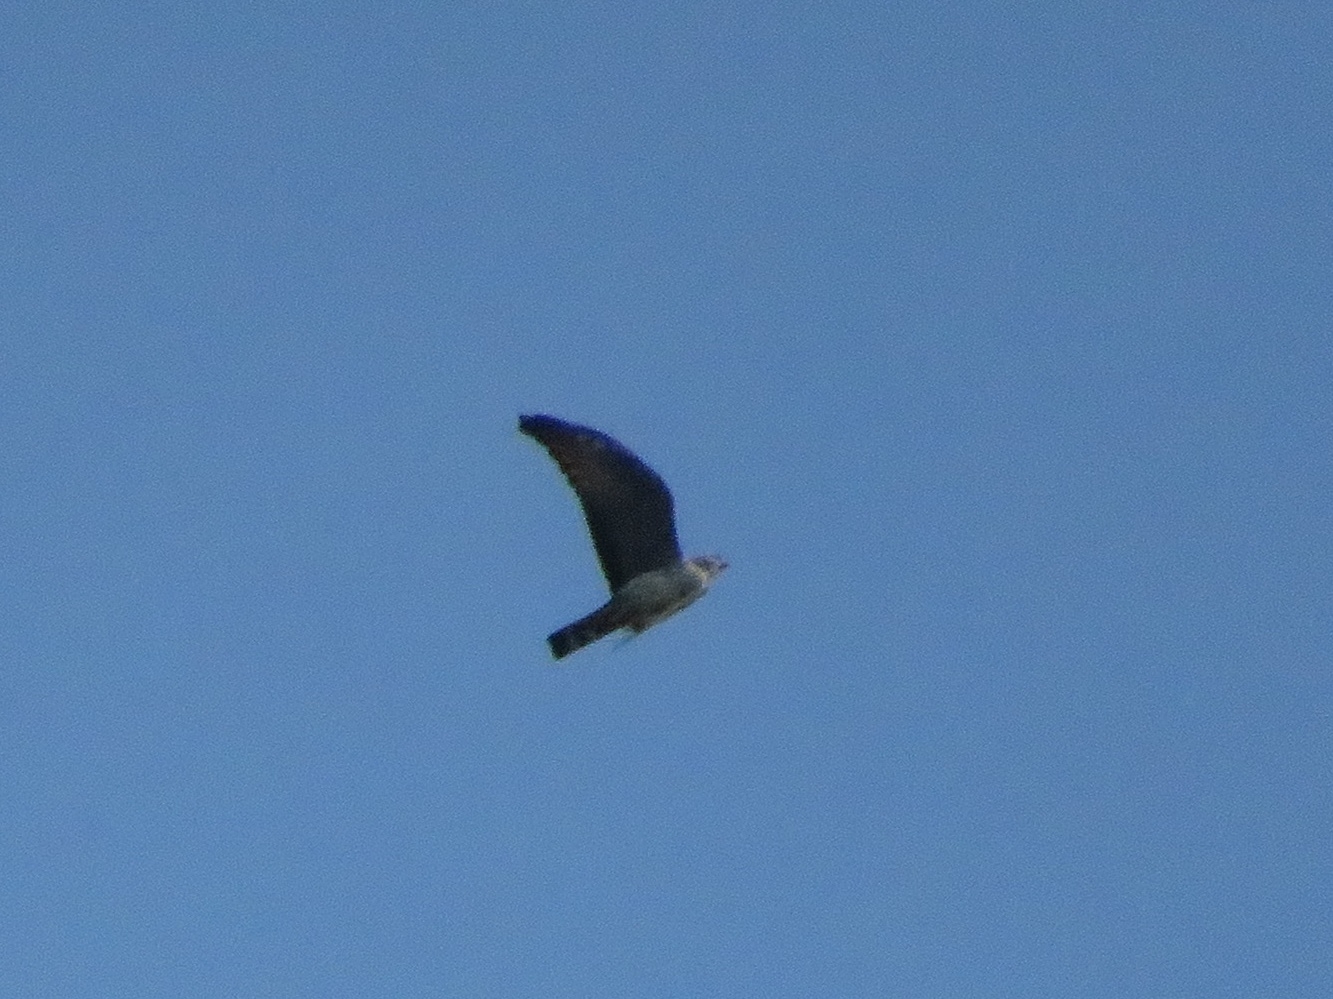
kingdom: Animalia
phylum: Chordata
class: Aves
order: Accipitriformes
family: Accipitridae
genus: Ictinia
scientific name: Ictinia plumbea
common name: Plumbeous kite
